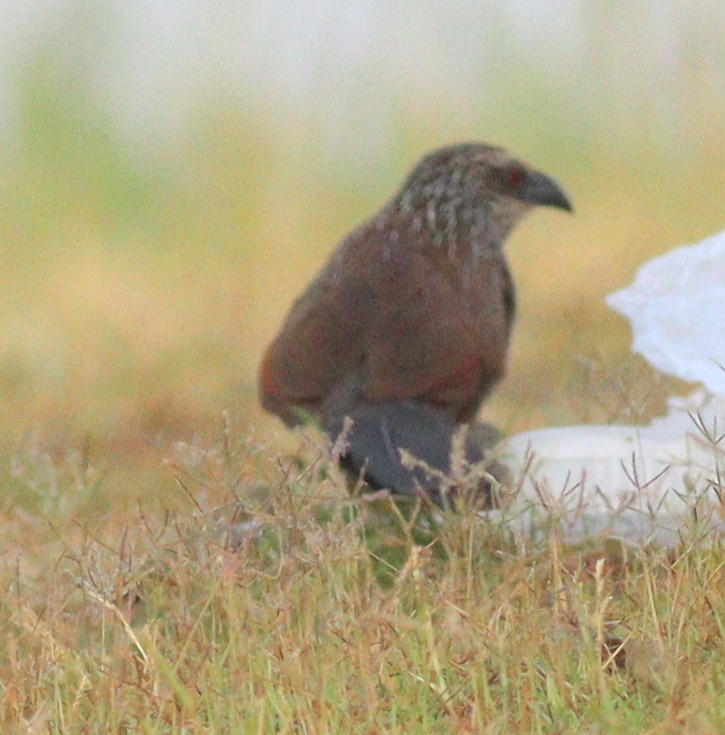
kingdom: Animalia
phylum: Chordata
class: Aves
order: Cuculiformes
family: Cuculidae
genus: Centropus
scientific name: Centropus superciliosus
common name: White-browed coucal
